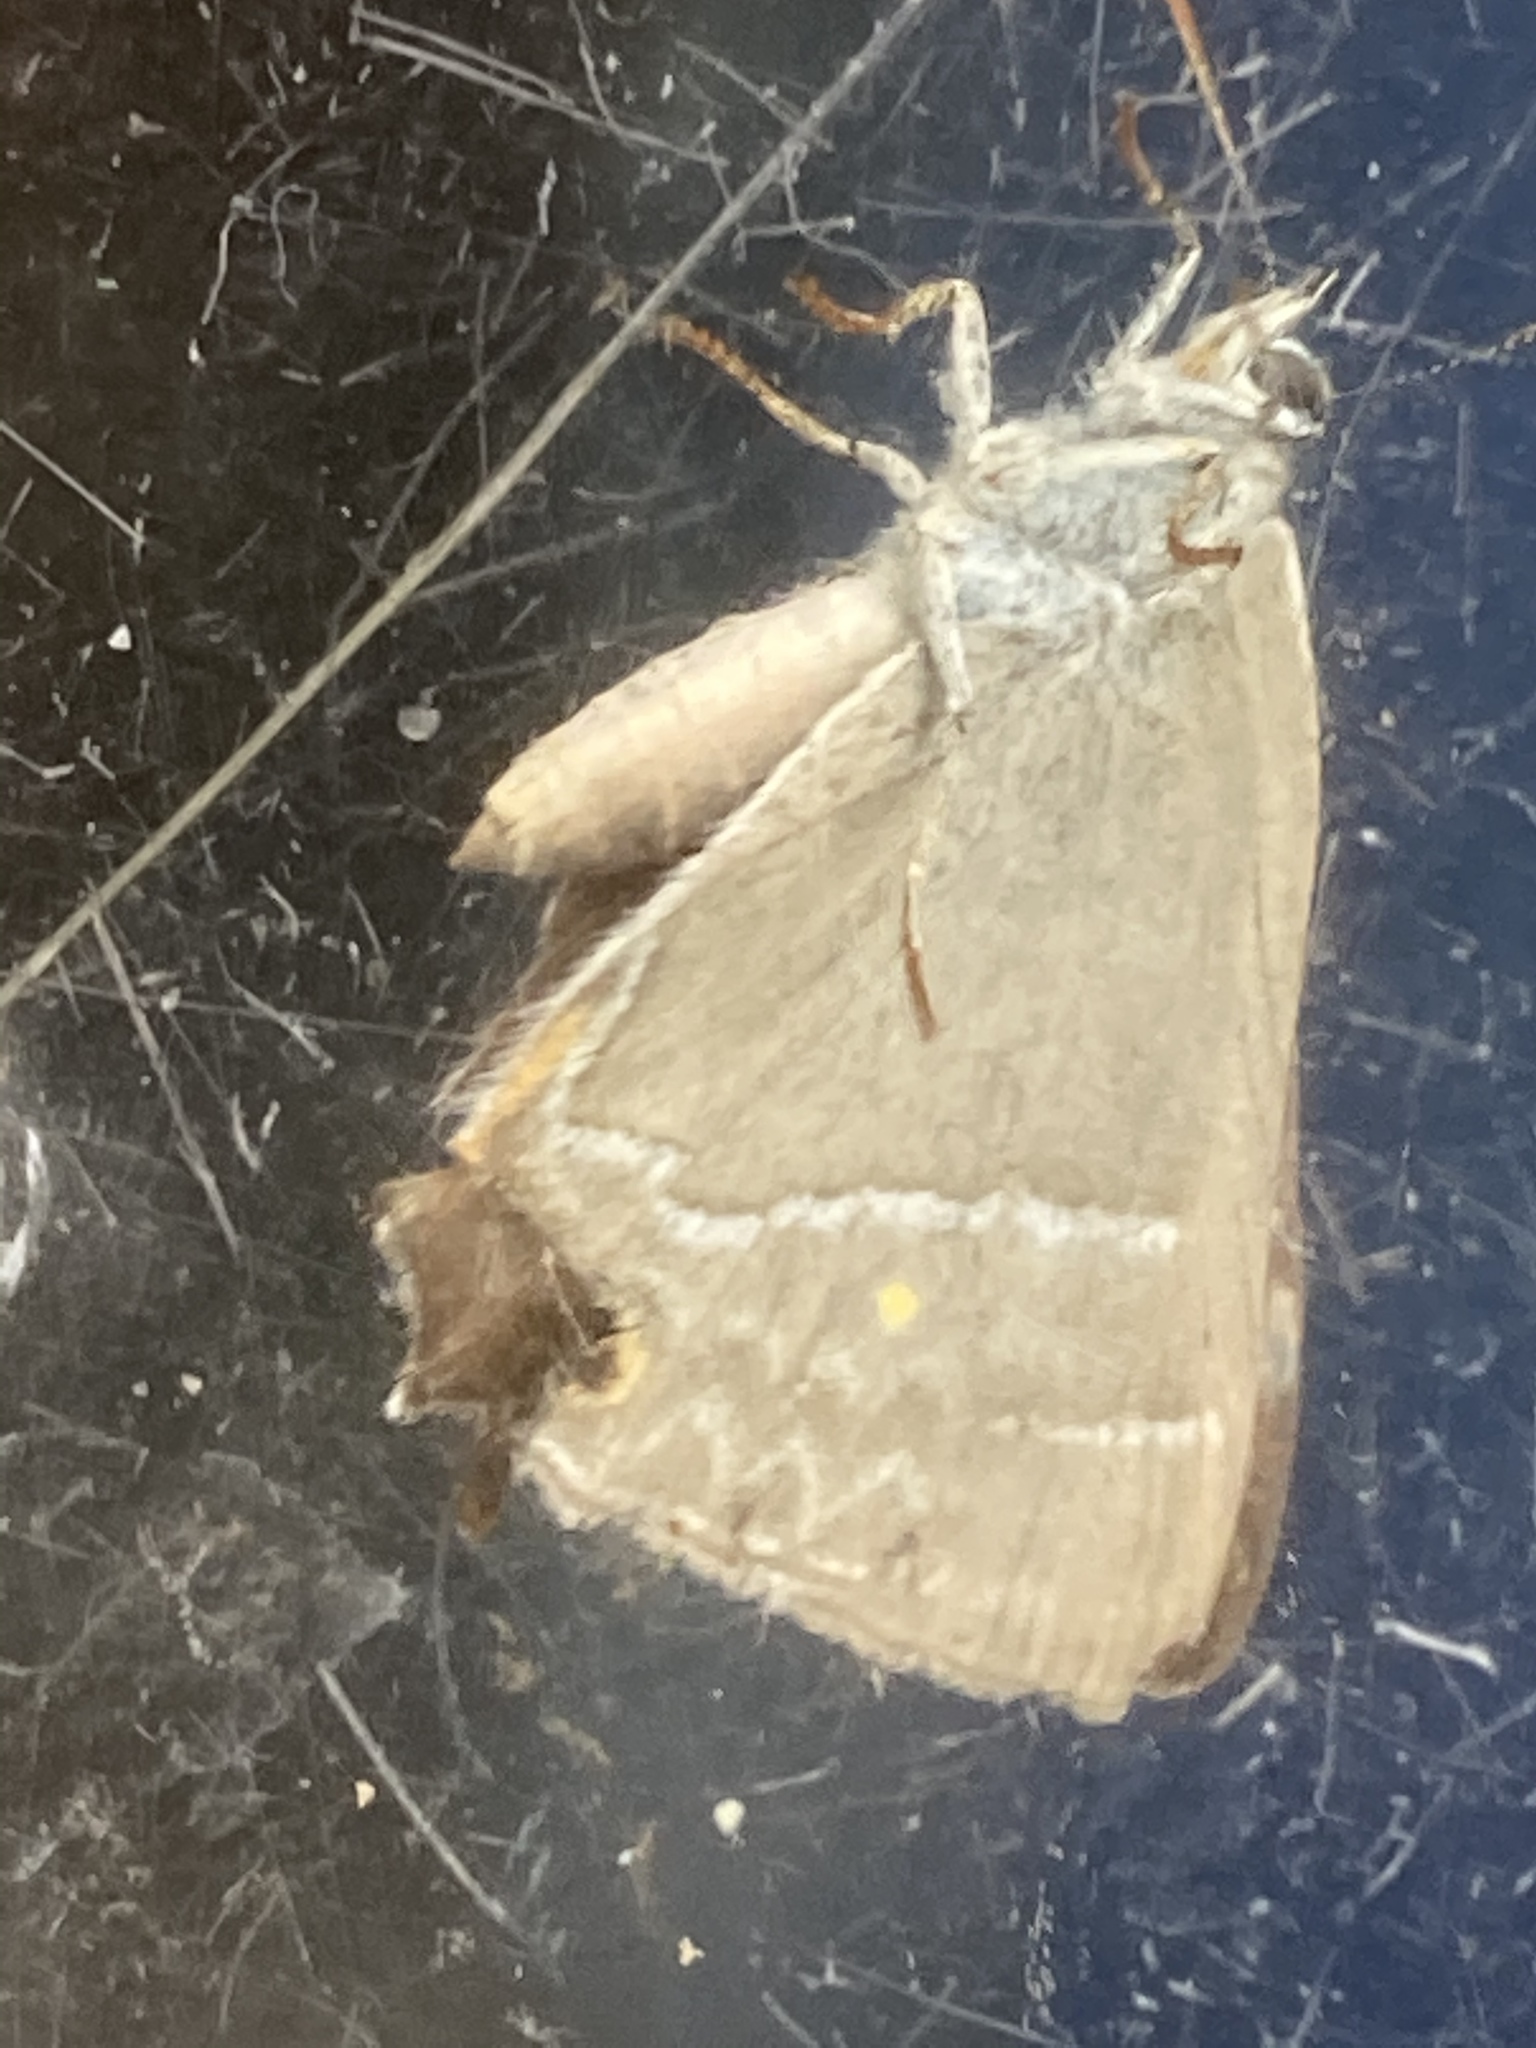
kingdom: Animalia
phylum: Arthropoda
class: Insecta
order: Lepidoptera
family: Lycaenidae
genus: Quercusia
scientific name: Quercusia quercus
